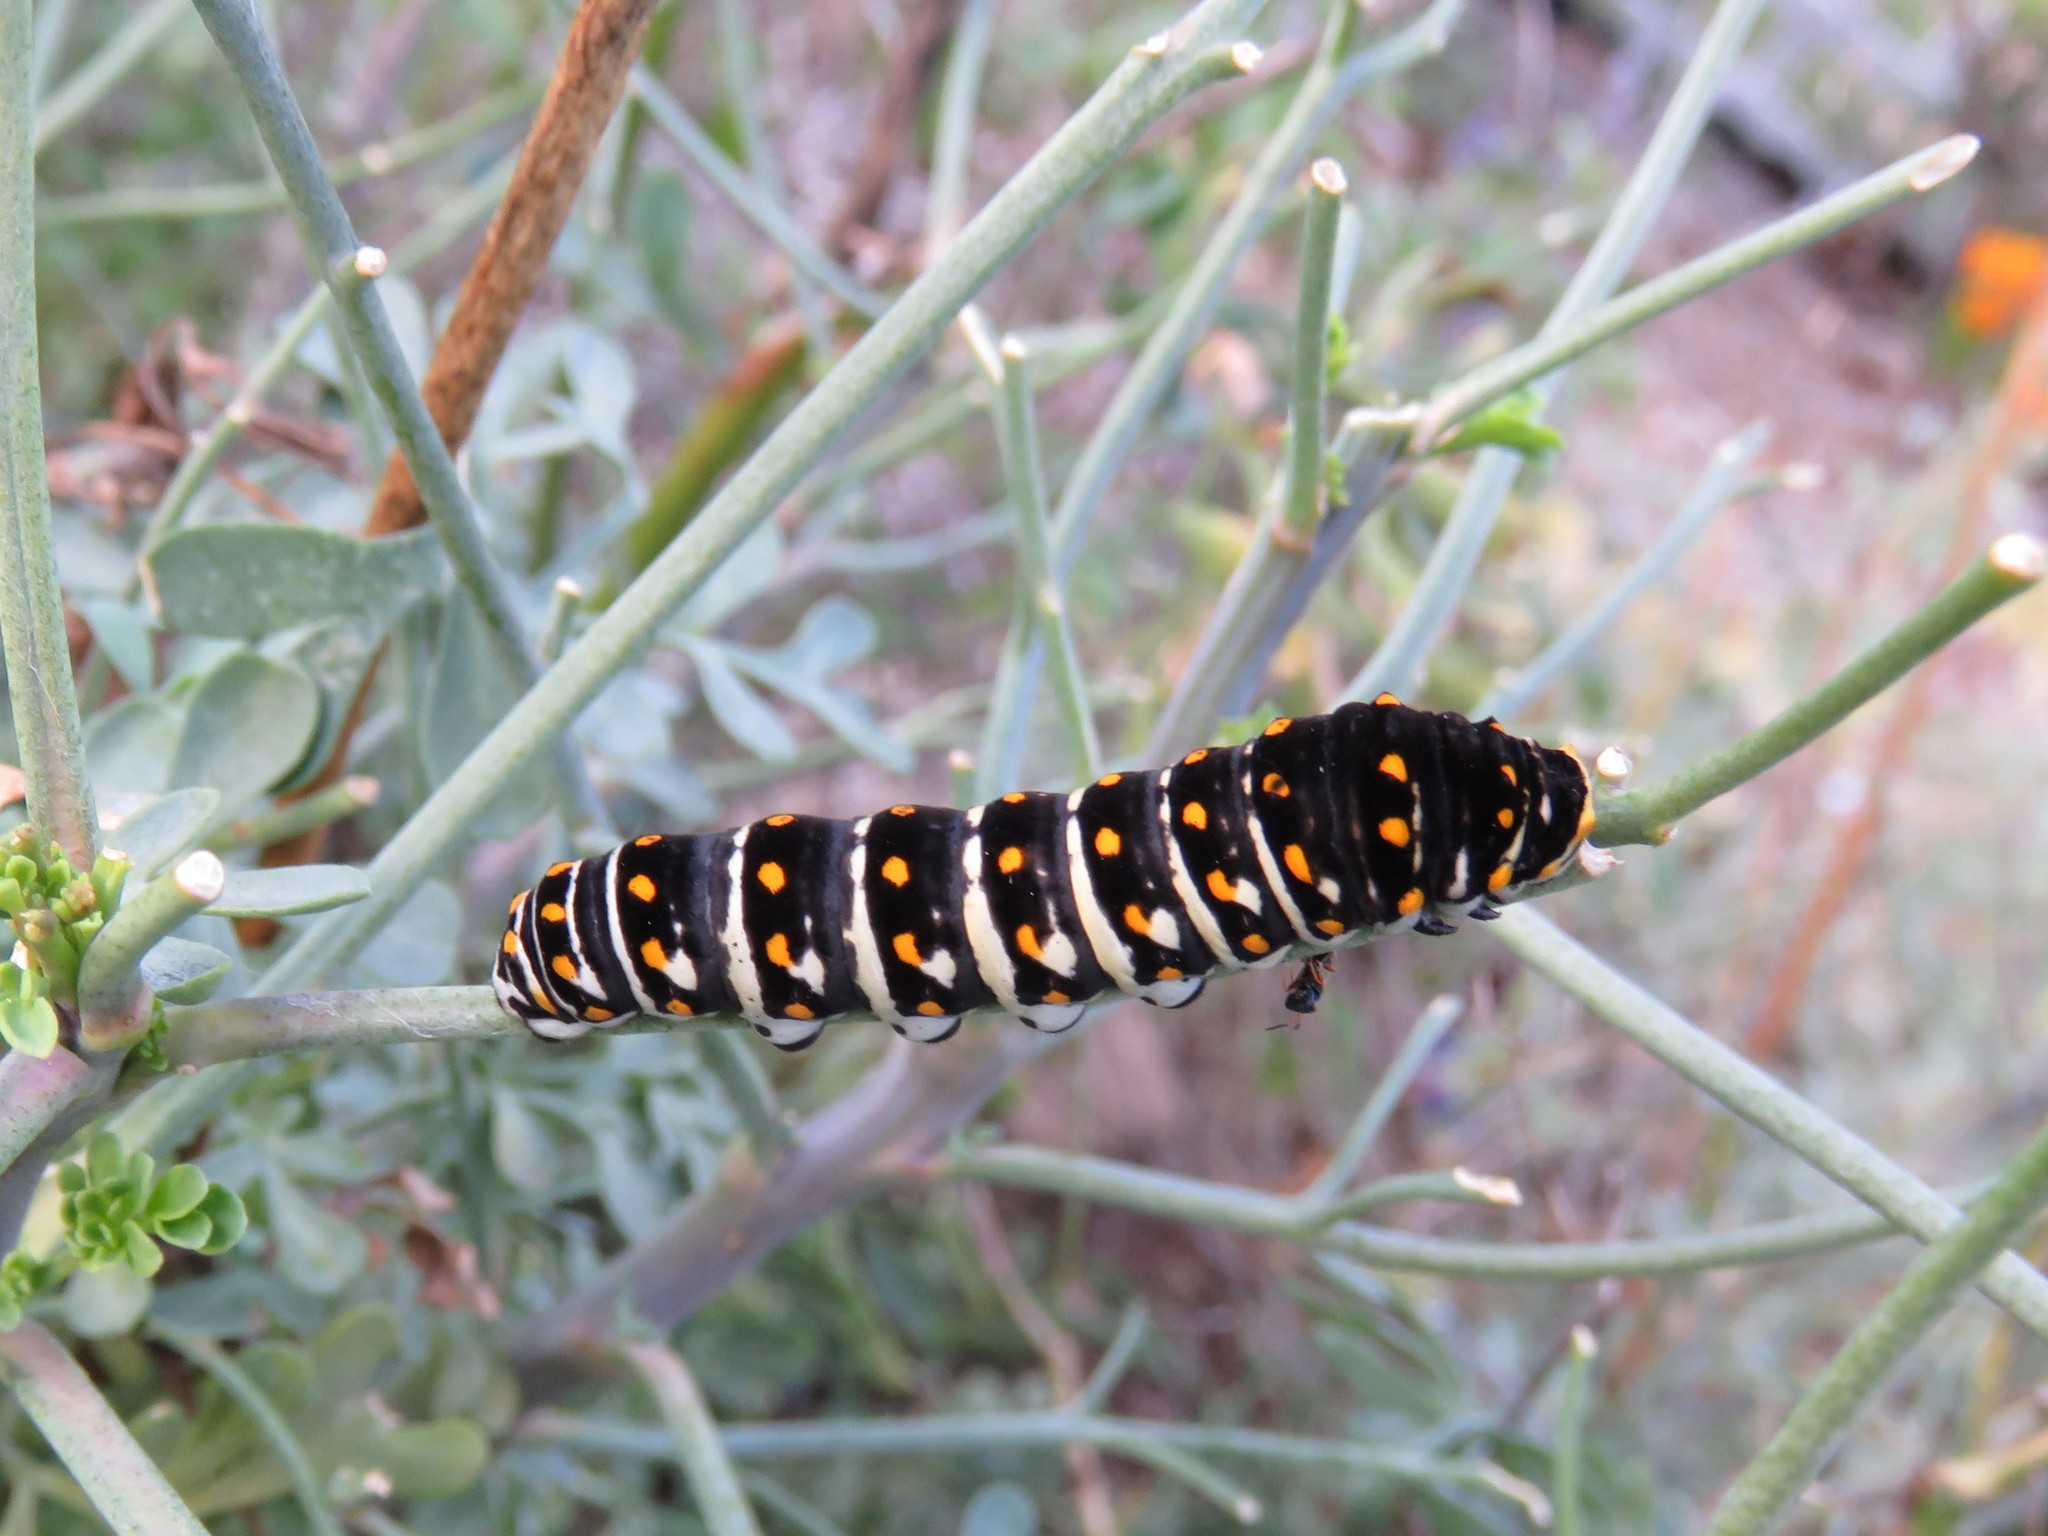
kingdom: Animalia
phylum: Arthropoda
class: Insecta
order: Lepidoptera
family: Papilionidae
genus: Papilio
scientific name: Papilio polyxenes
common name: Black swallowtail
